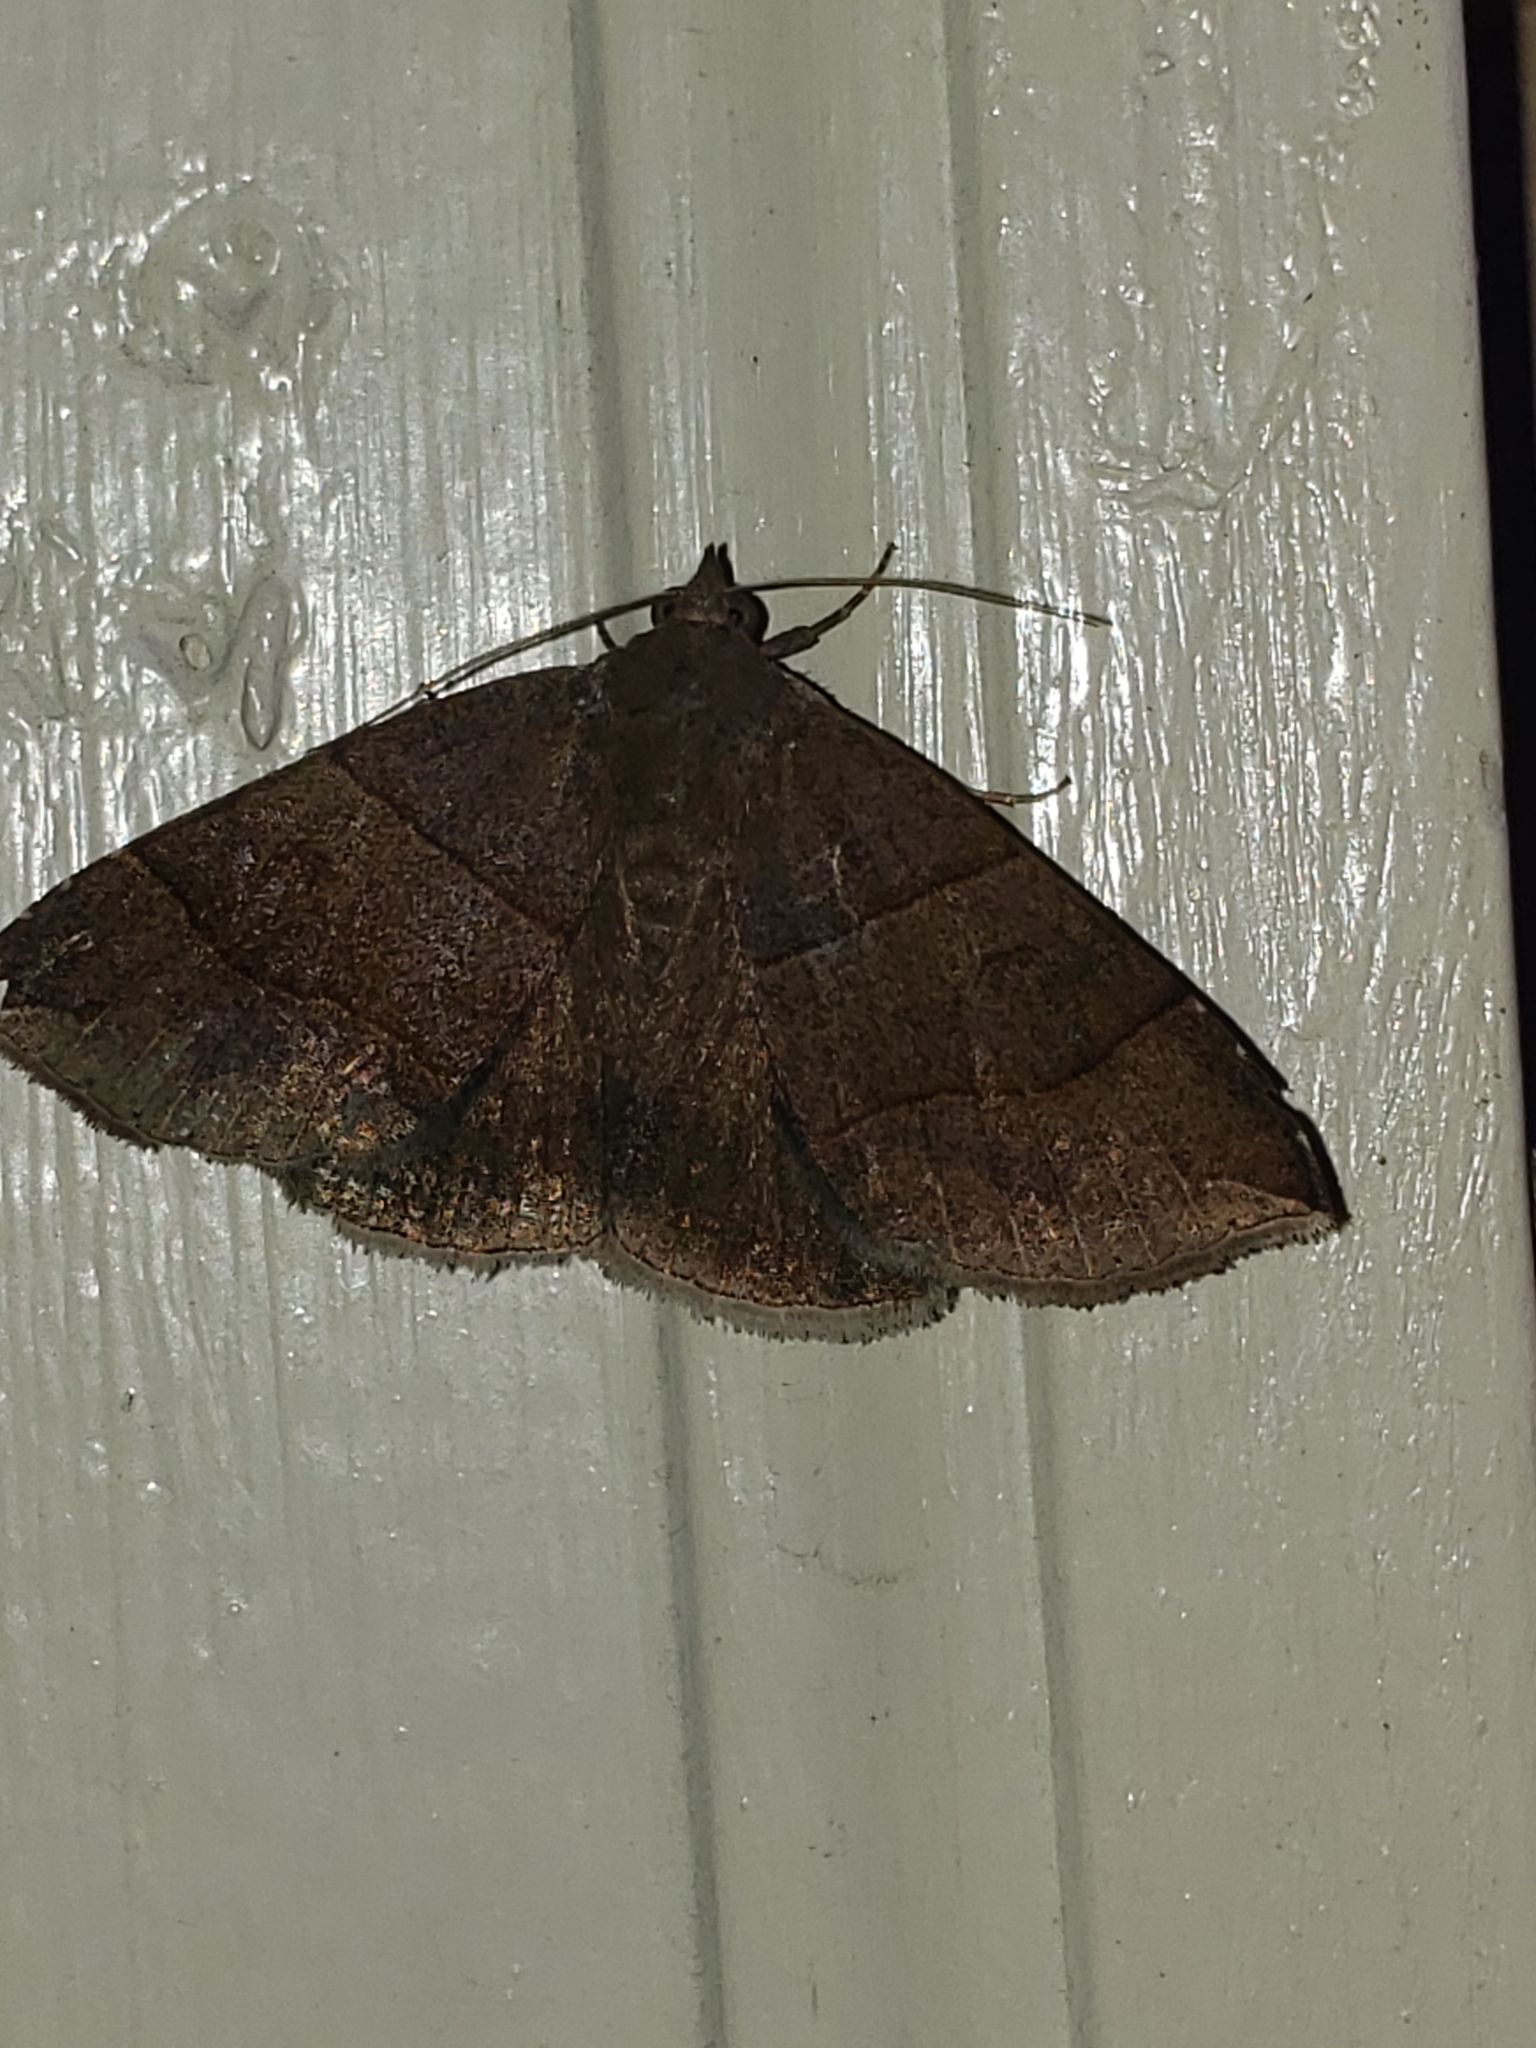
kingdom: Animalia
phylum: Arthropoda
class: Insecta
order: Lepidoptera
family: Erebidae
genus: Parallelia
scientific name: Parallelia bistriaris
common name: Maple looper moth
